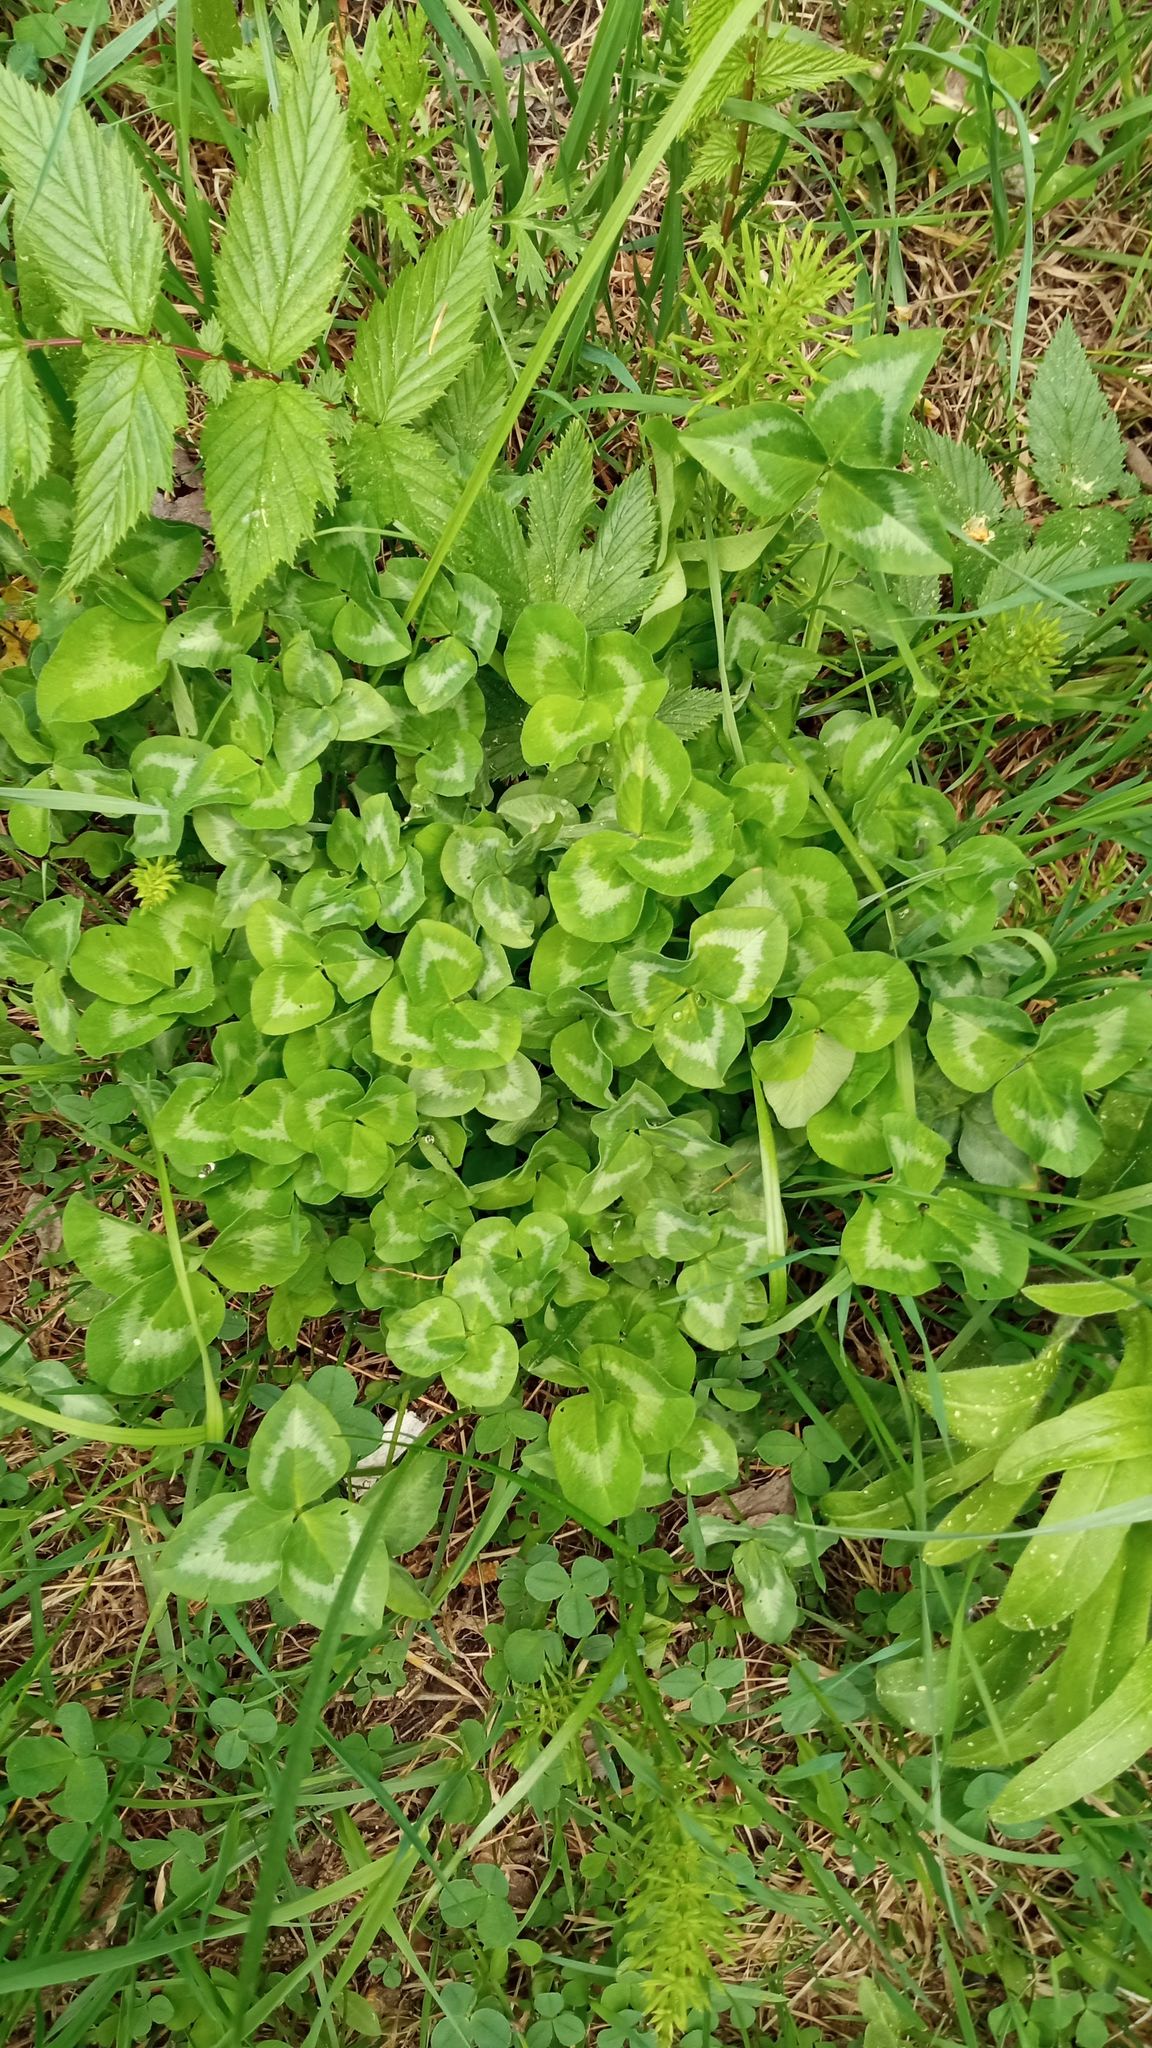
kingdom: Plantae
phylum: Tracheophyta
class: Magnoliopsida
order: Fabales
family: Fabaceae
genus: Trifolium
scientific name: Trifolium pratense
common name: Red clover
